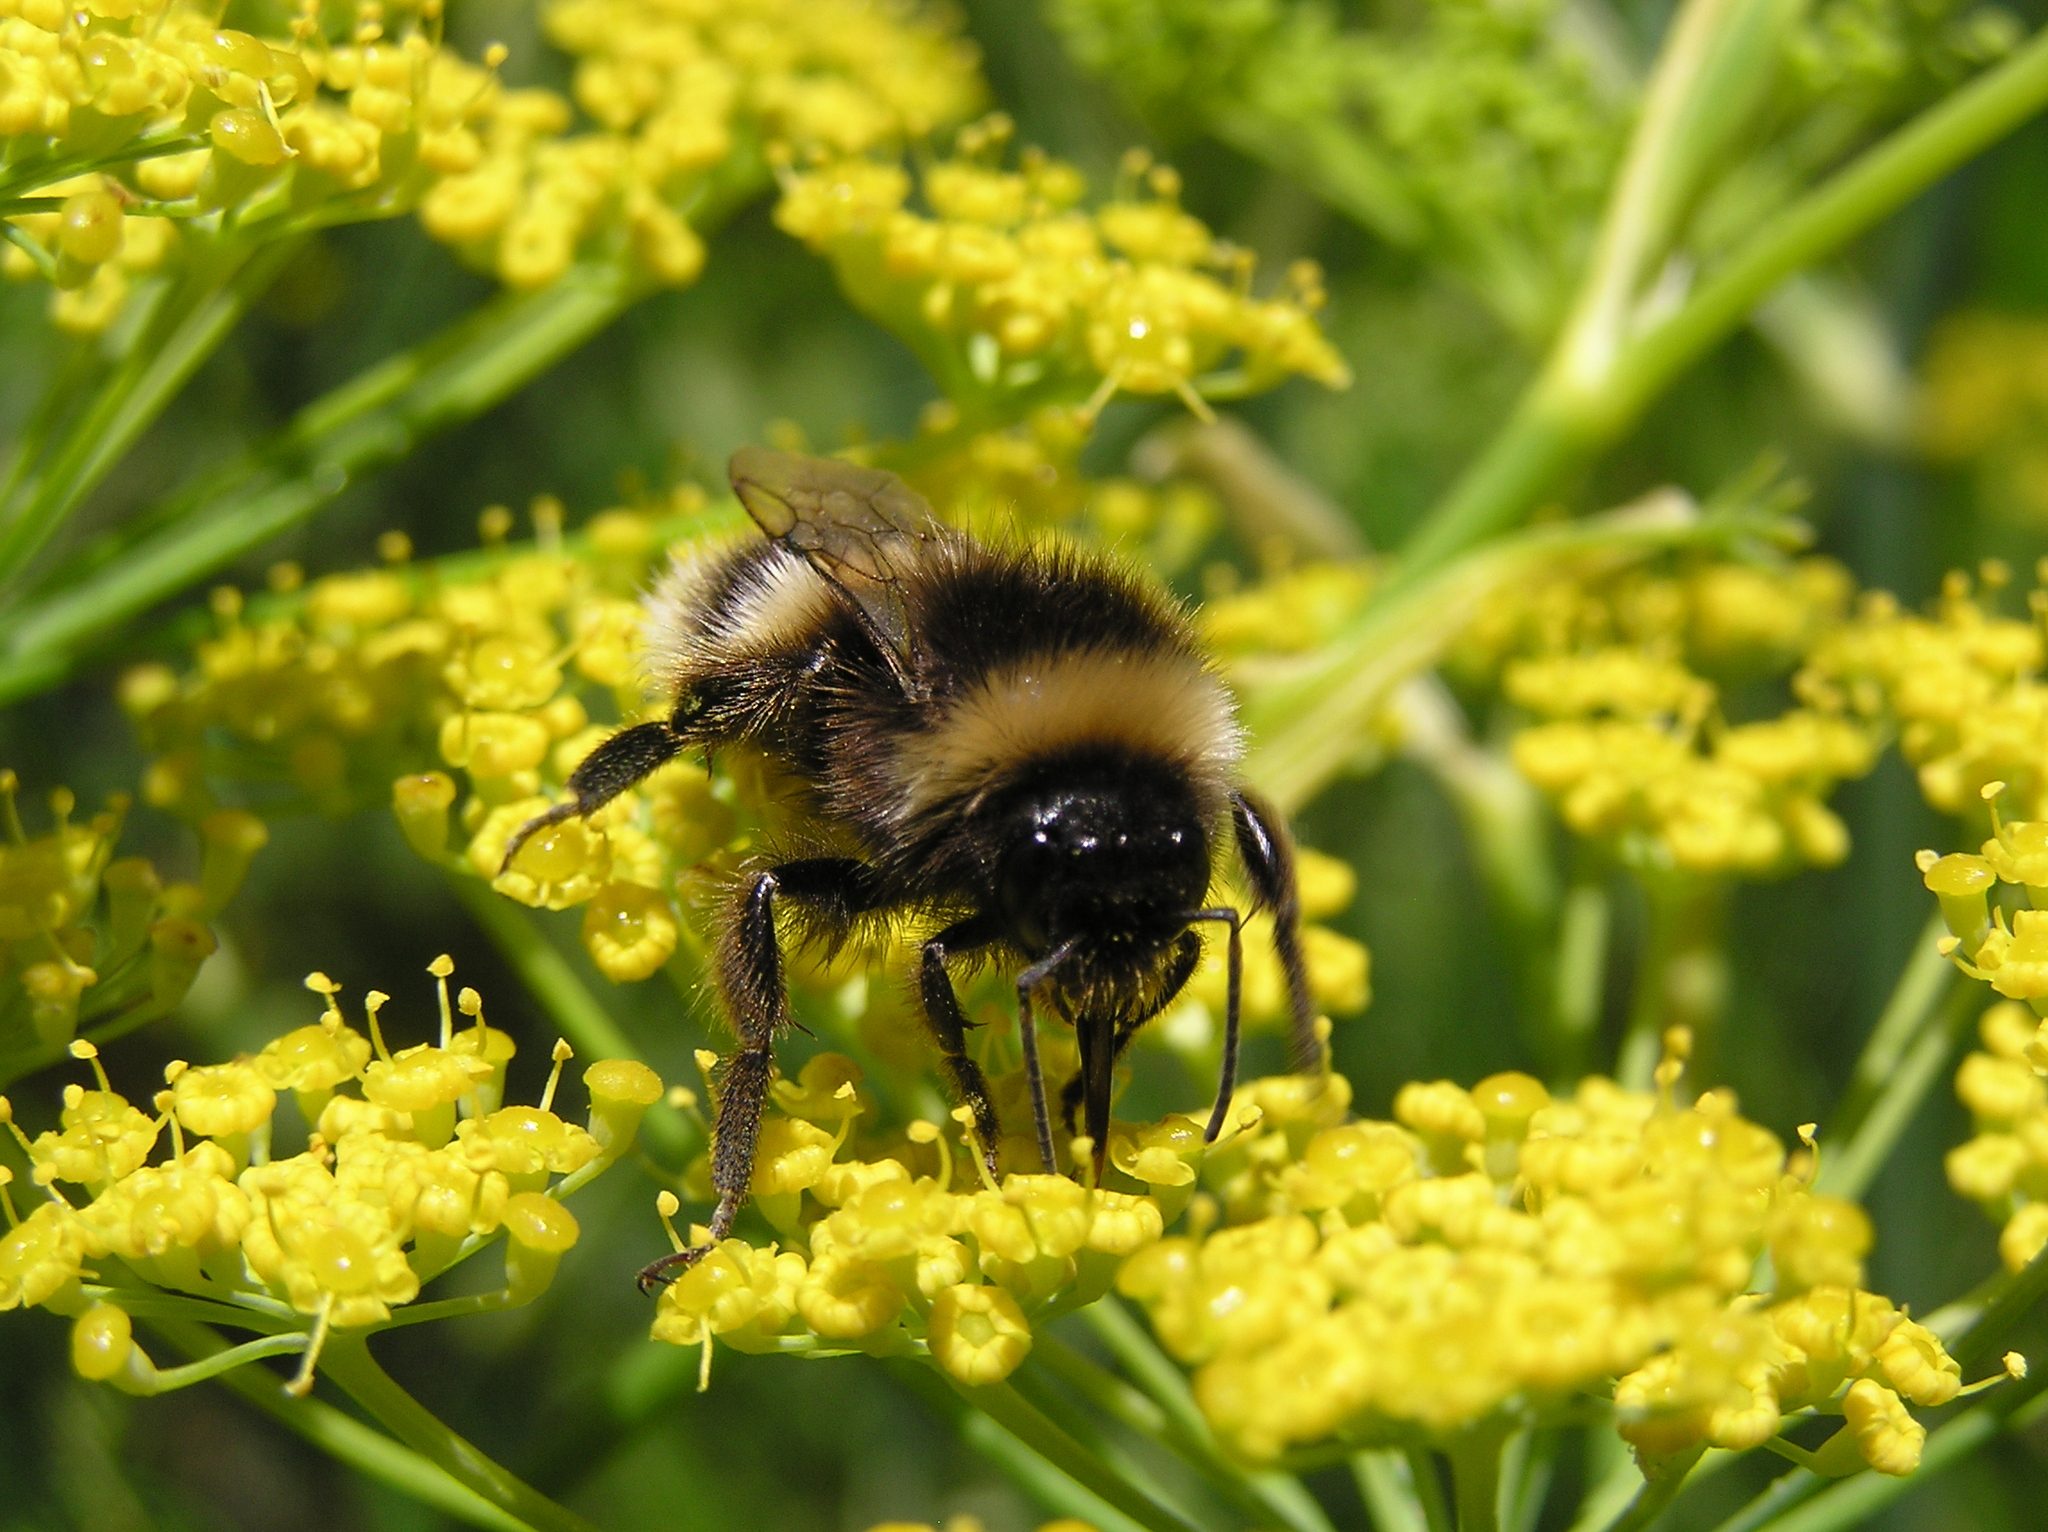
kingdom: Animalia
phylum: Arthropoda
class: Insecta
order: Hymenoptera
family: Apidae
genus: Bombus
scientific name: Bombus terrestris
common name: Buff-tailed bumblebee
